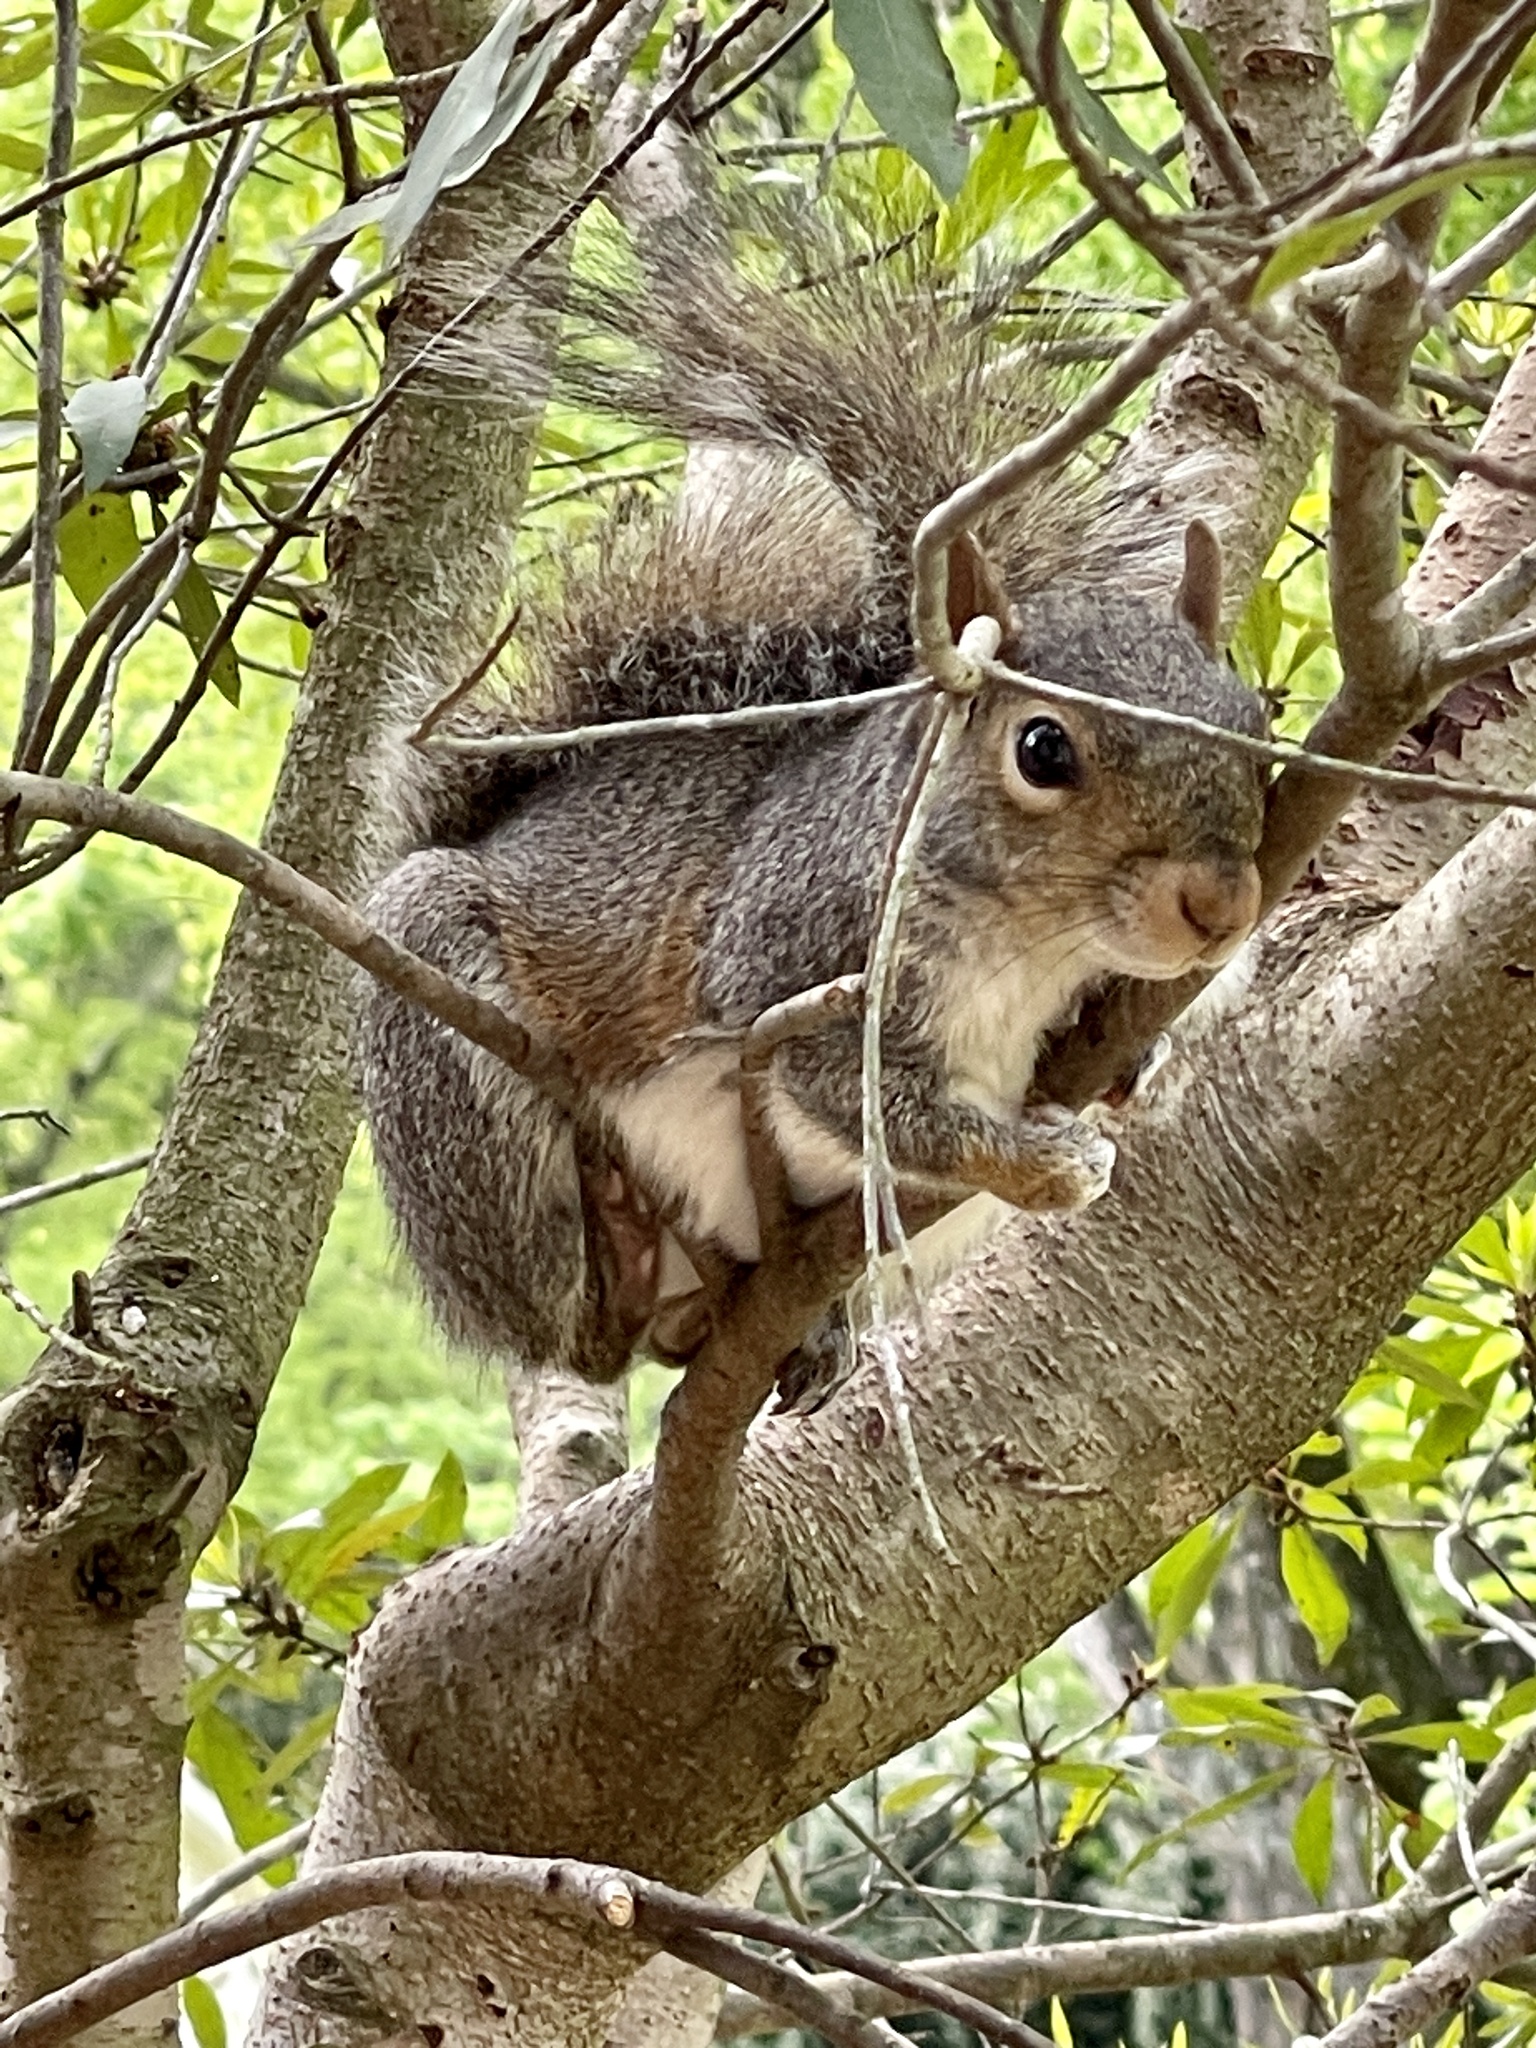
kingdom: Animalia
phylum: Chordata
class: Mammalia
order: Rodentia
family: Sciuridae
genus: Sciurus
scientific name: Sciurus carolinensis
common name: Eastern gray squirrel
